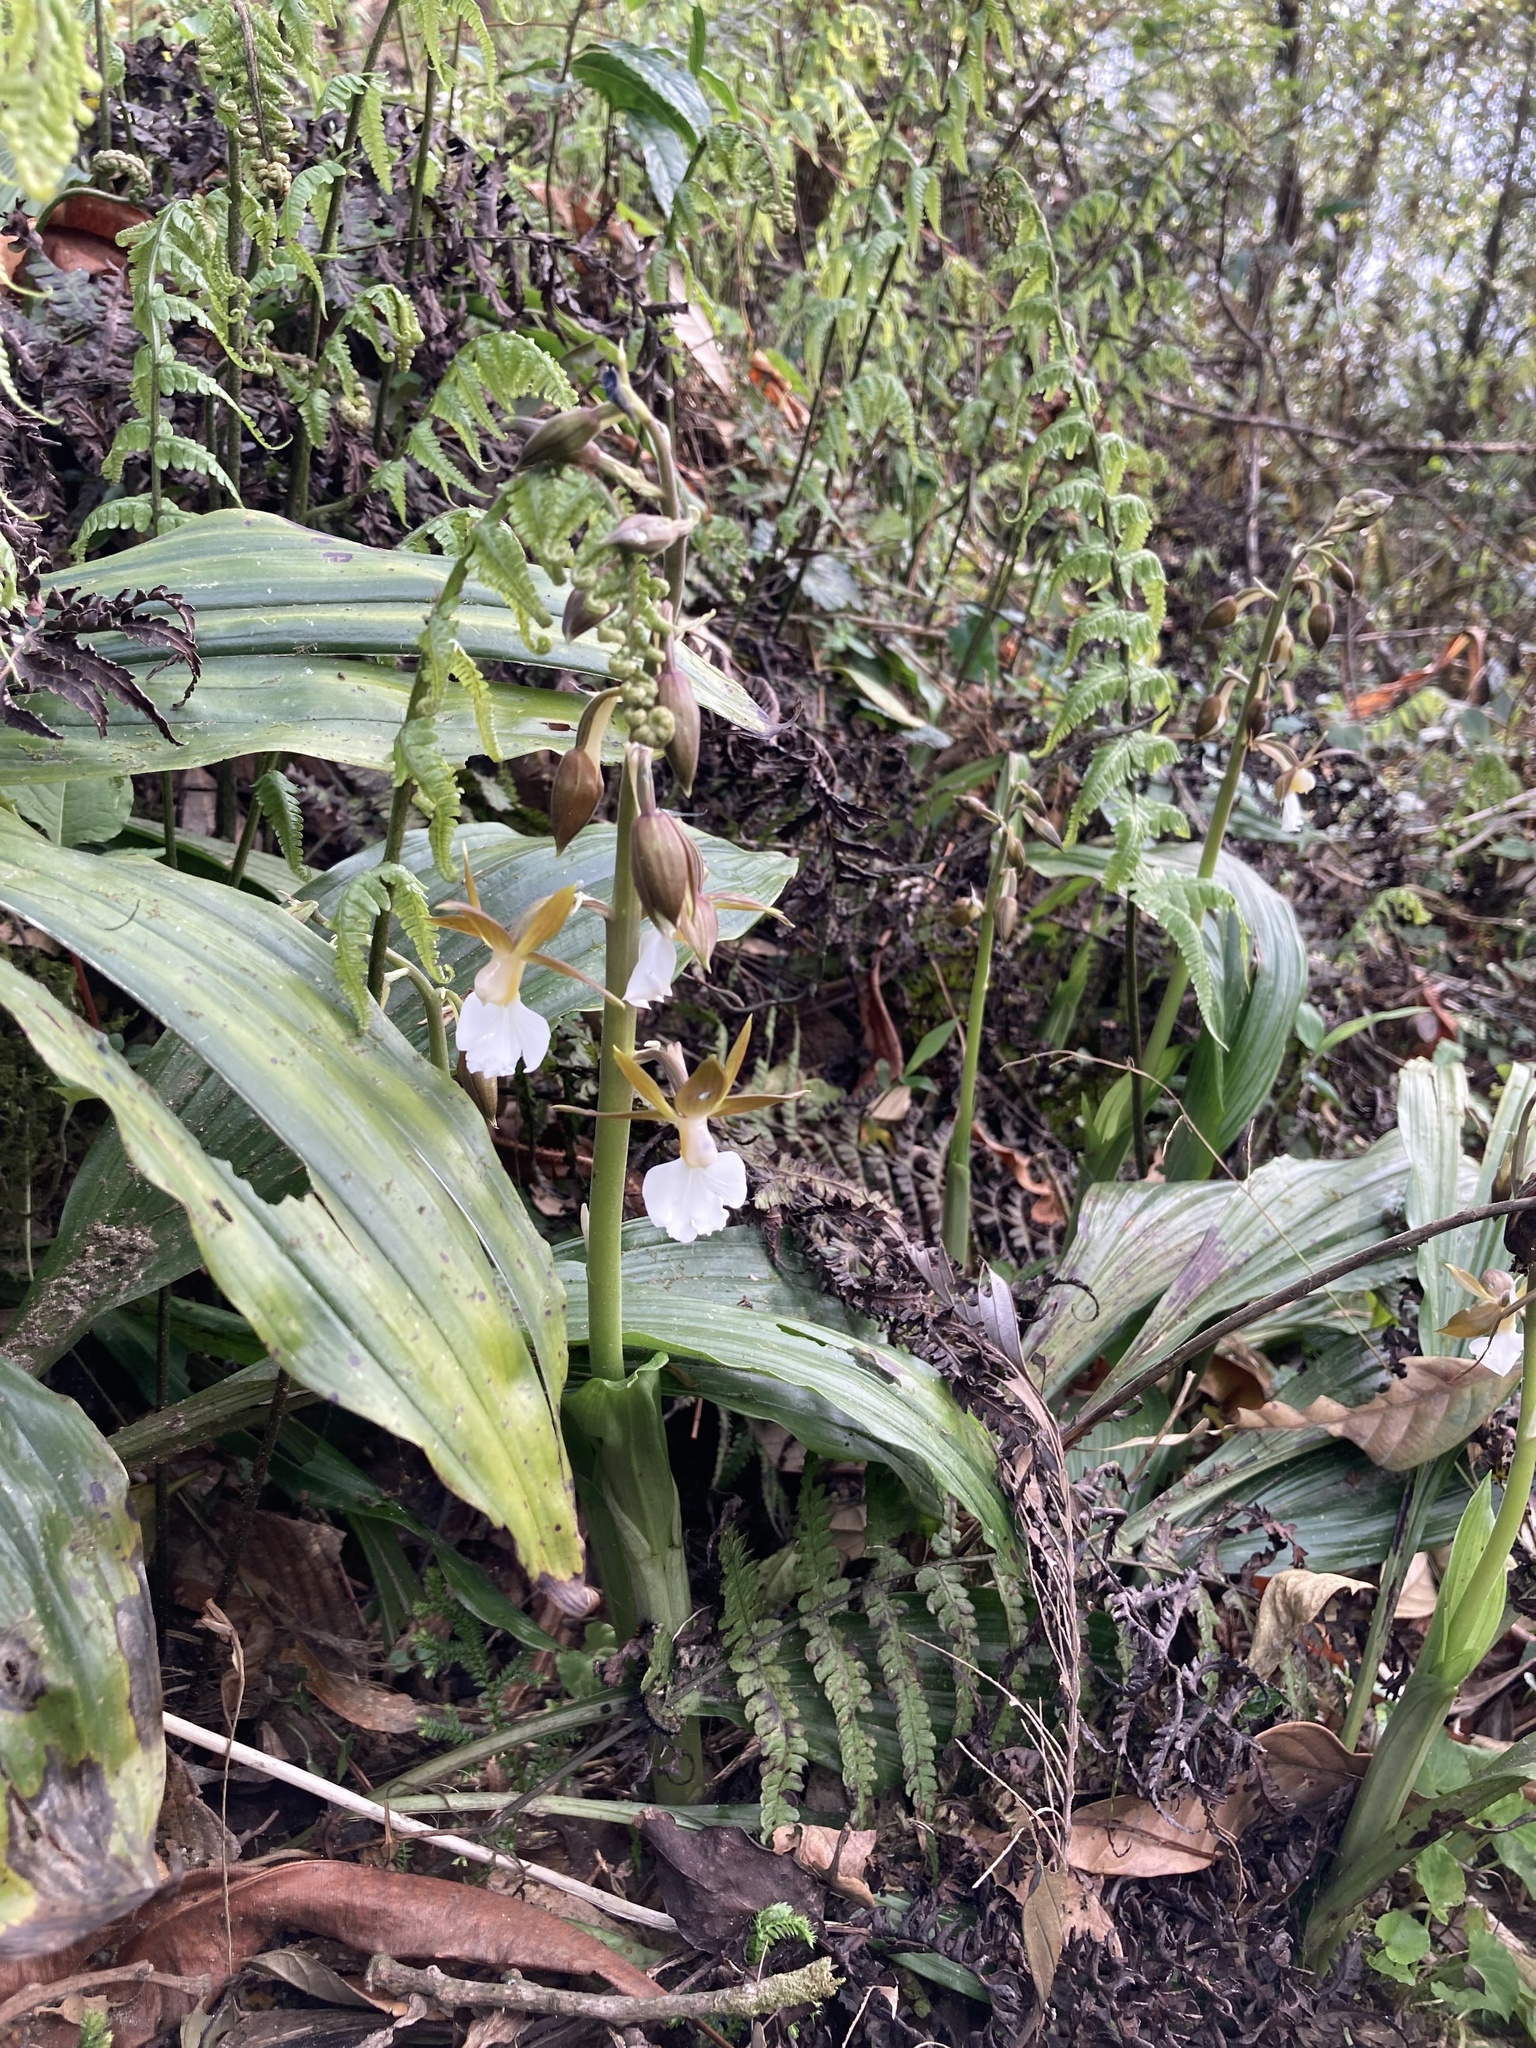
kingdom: Plantae
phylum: Tracheophyta
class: Liliopsida
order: Asparagales
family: Orchidaceae
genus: Calanthe
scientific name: Calanthe yuksomnensis
